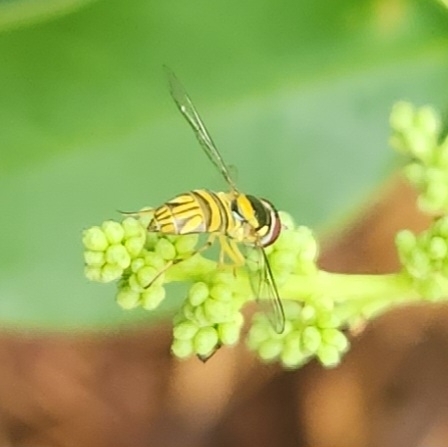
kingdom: Animalia
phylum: Arthropoda
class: Insecta
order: Diptera
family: Syrphidae
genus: Allograpta
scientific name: Allograpta obliqua
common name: Common oblique syrphid
